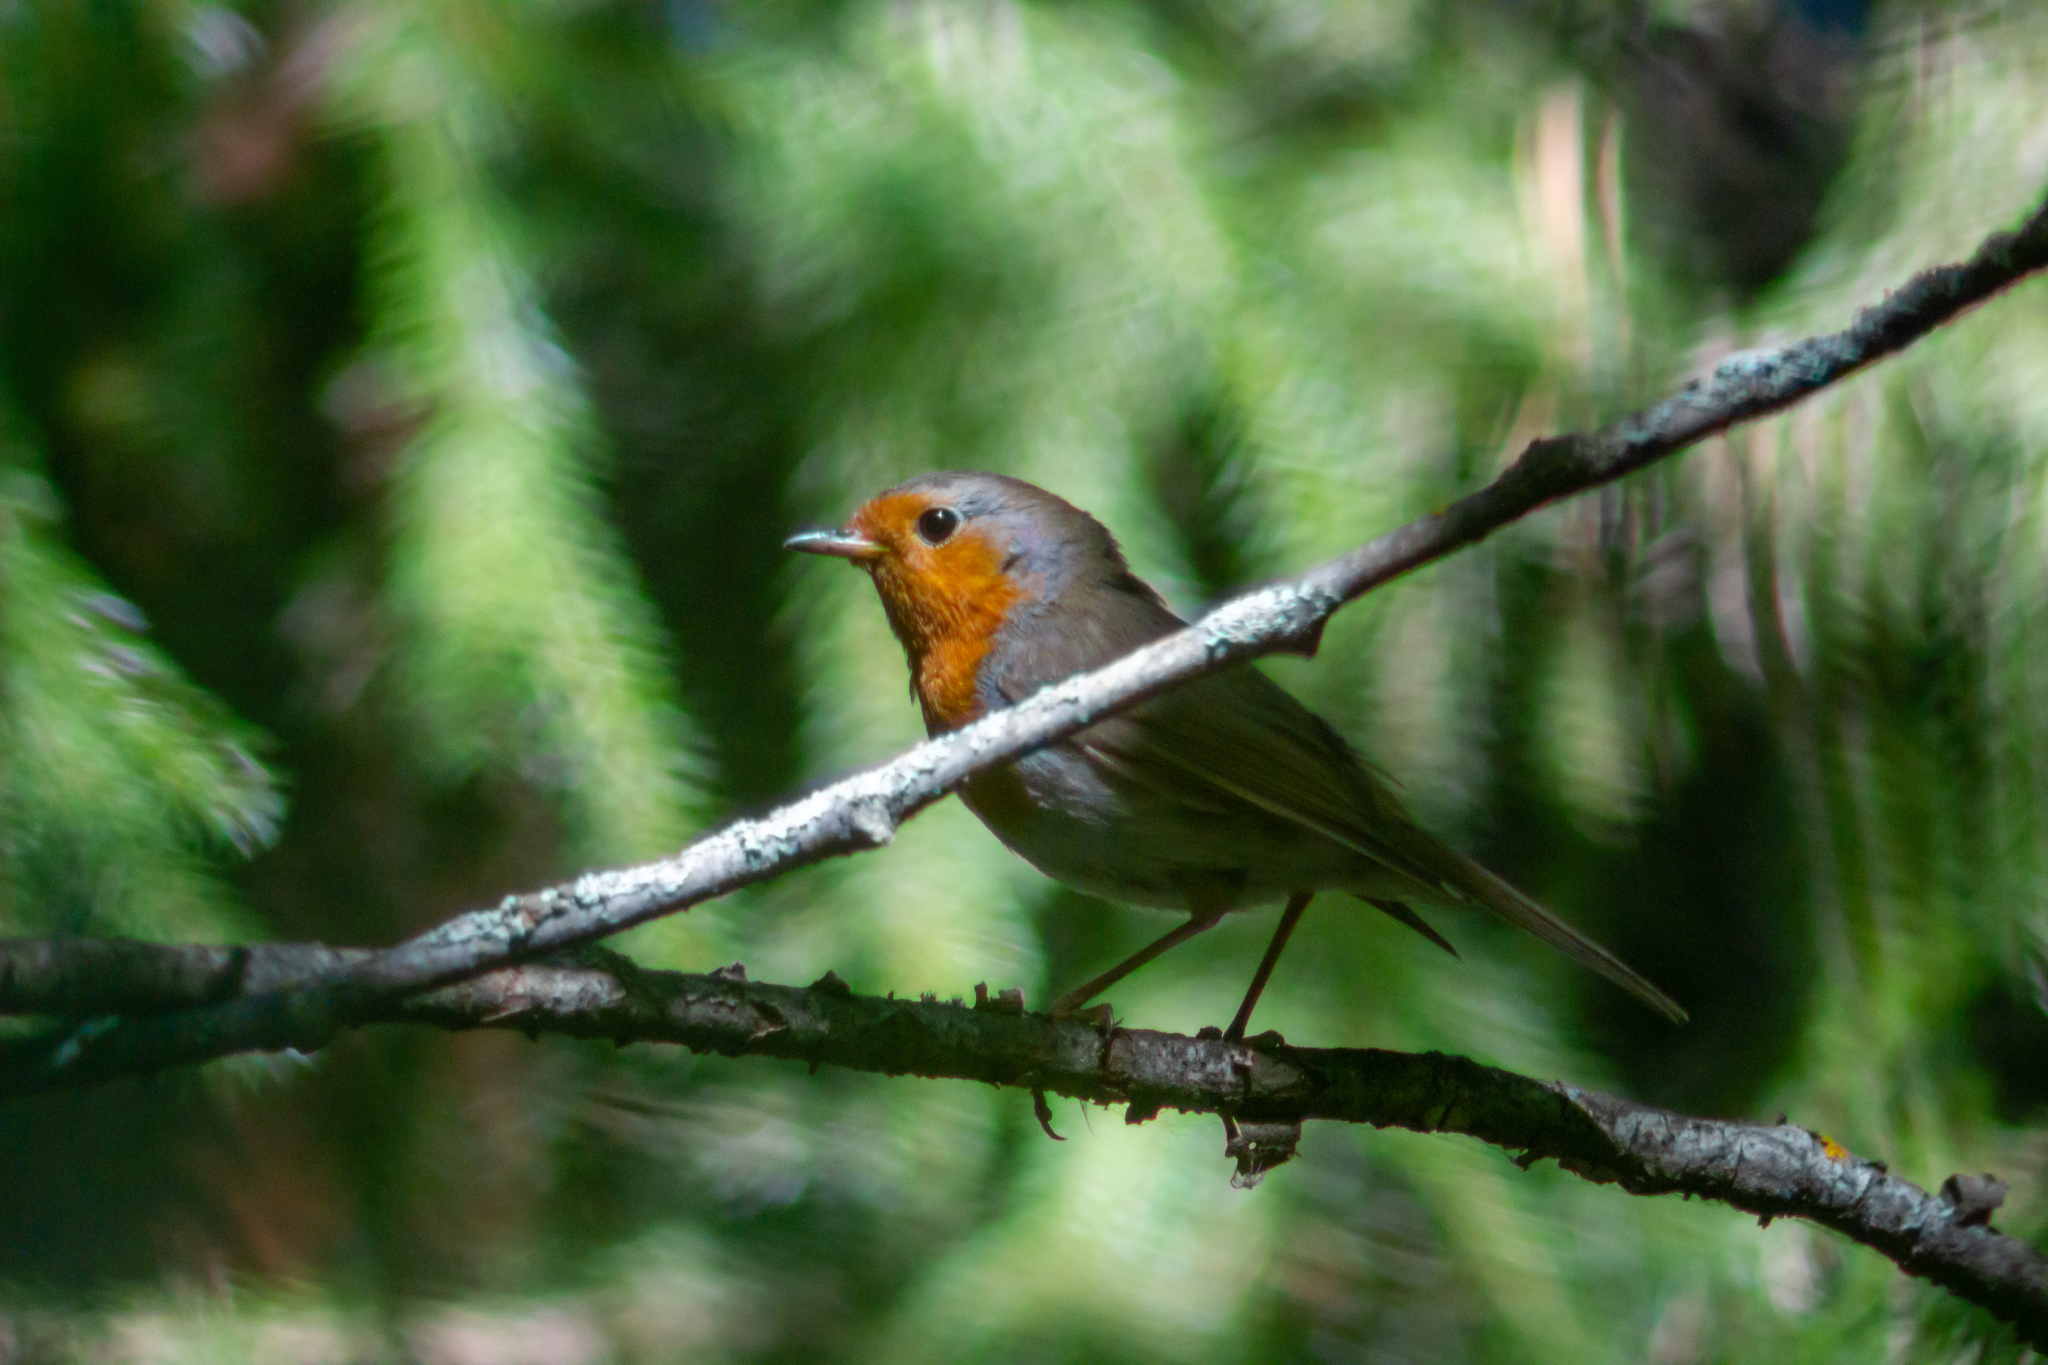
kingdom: Animalia
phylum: Chordata
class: Aves
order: Passeriformes
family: Muscicapidae
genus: Erithacus
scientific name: Erithacus rubecula
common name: European robin
